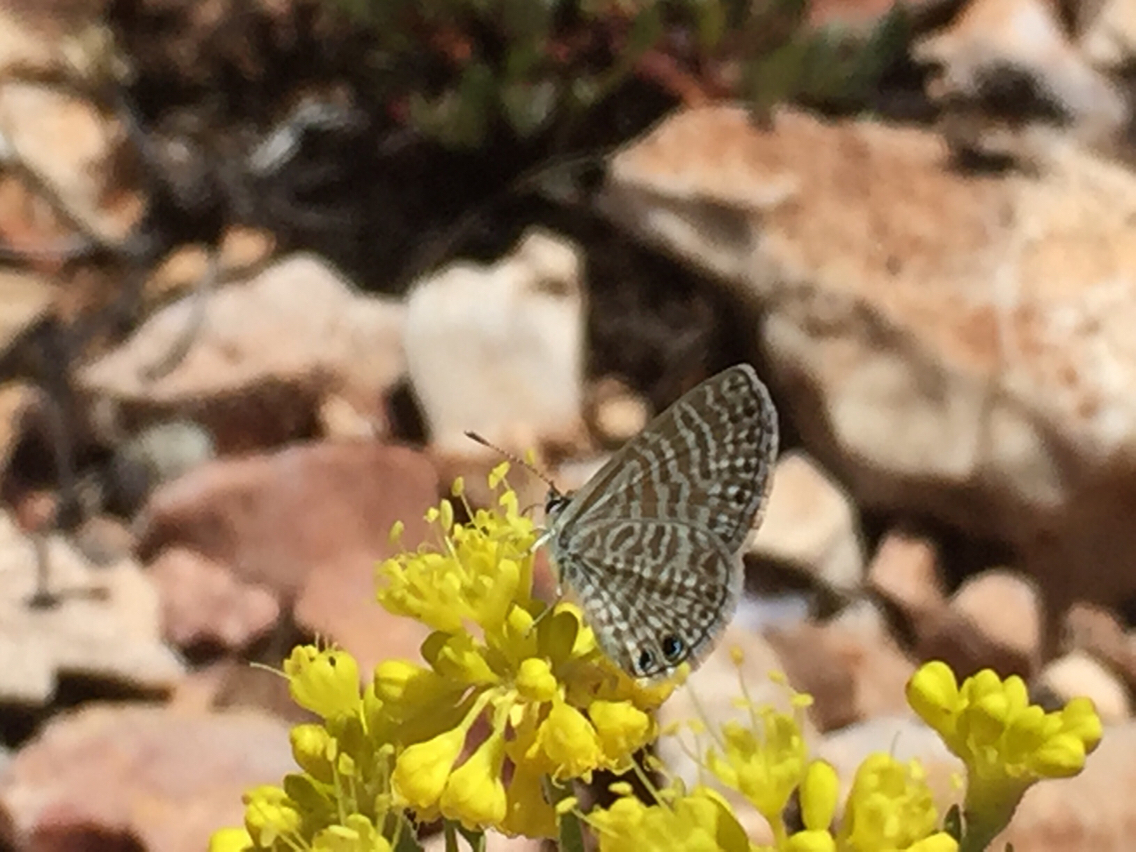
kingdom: Animalia
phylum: Arthropoda
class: Insecta
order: Lepidoptera
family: Lycaenidae
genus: Leptotes
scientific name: Leptotes marina
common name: Marine blue
